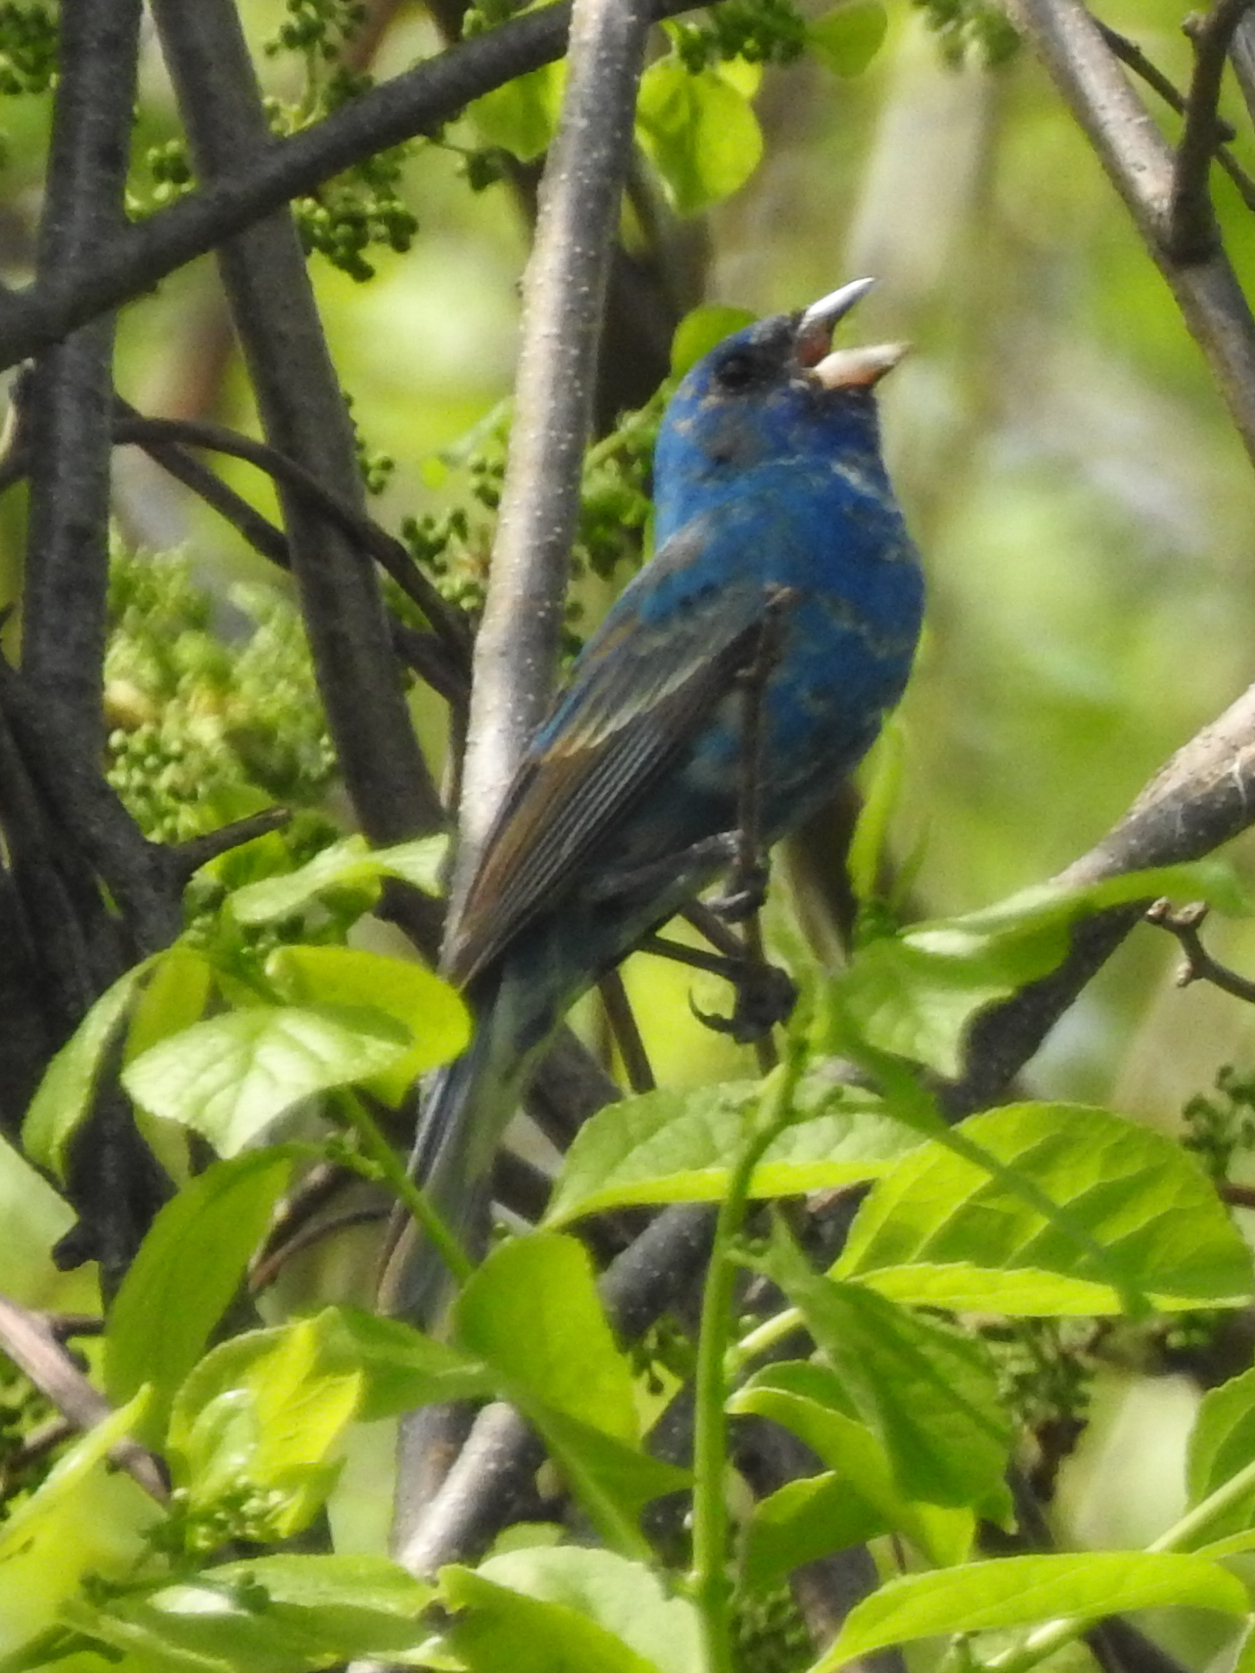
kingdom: Animalia
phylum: Chordata
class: Aves
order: Passeriformes
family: Cardinalidae
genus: Passerina
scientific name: Passerina cyanea
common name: Indigo bunting
